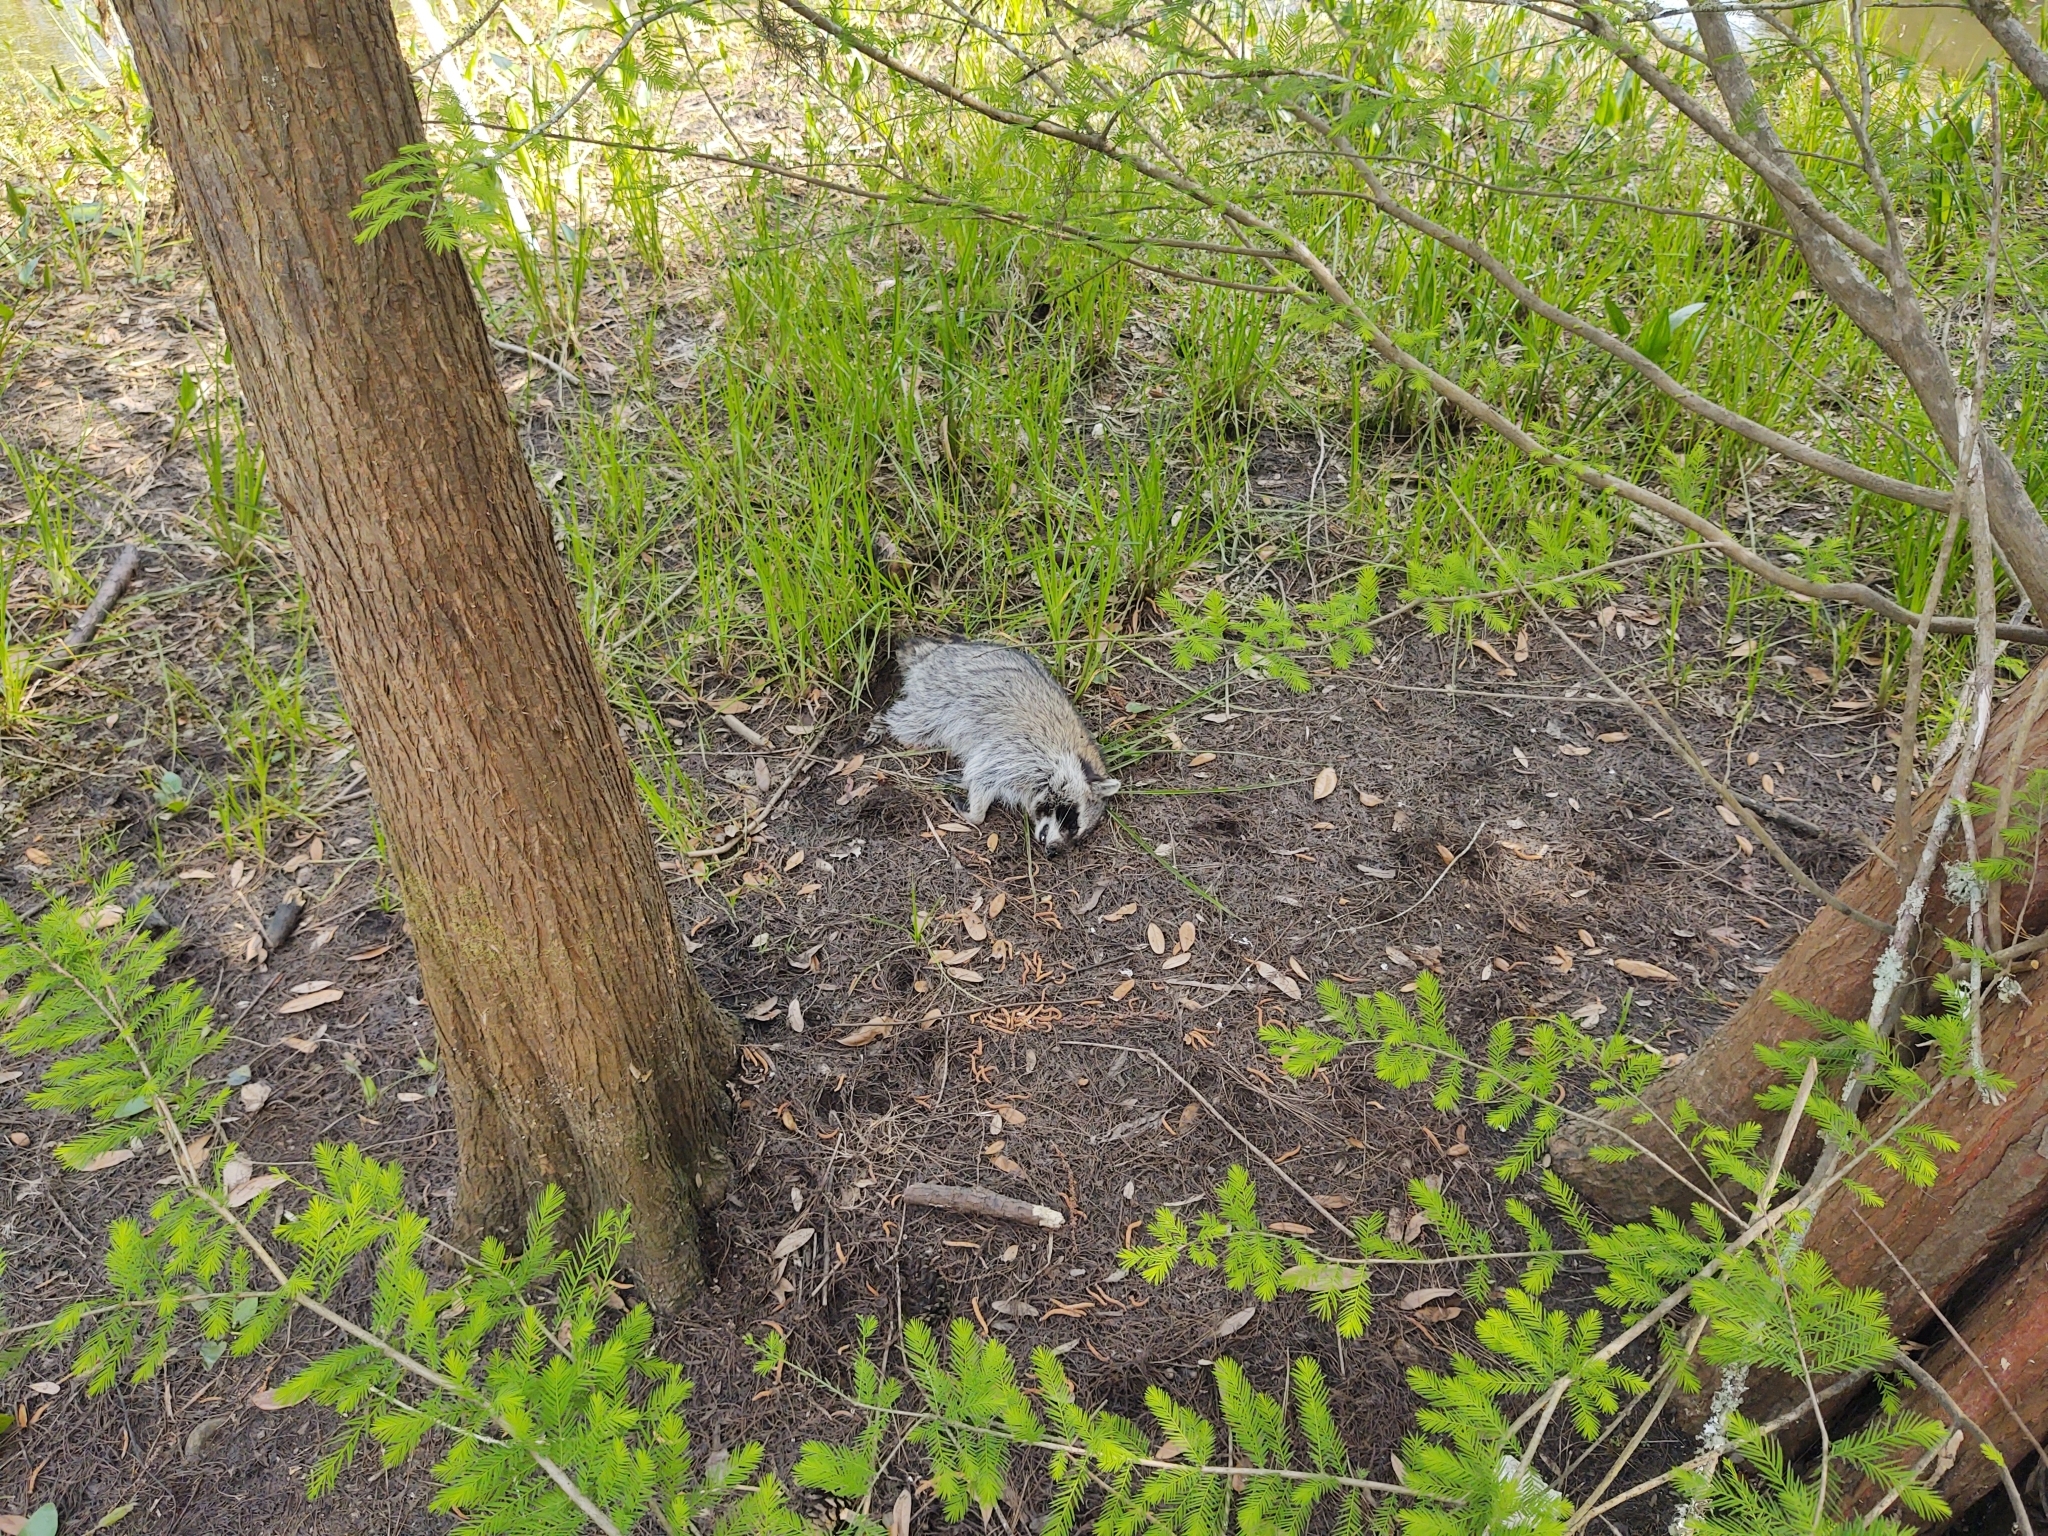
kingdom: Animalia
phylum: Chordata
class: Mammalia
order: Carnivora
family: Procyonidae
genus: Procyon
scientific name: Procyon lotor
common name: Raccoon
